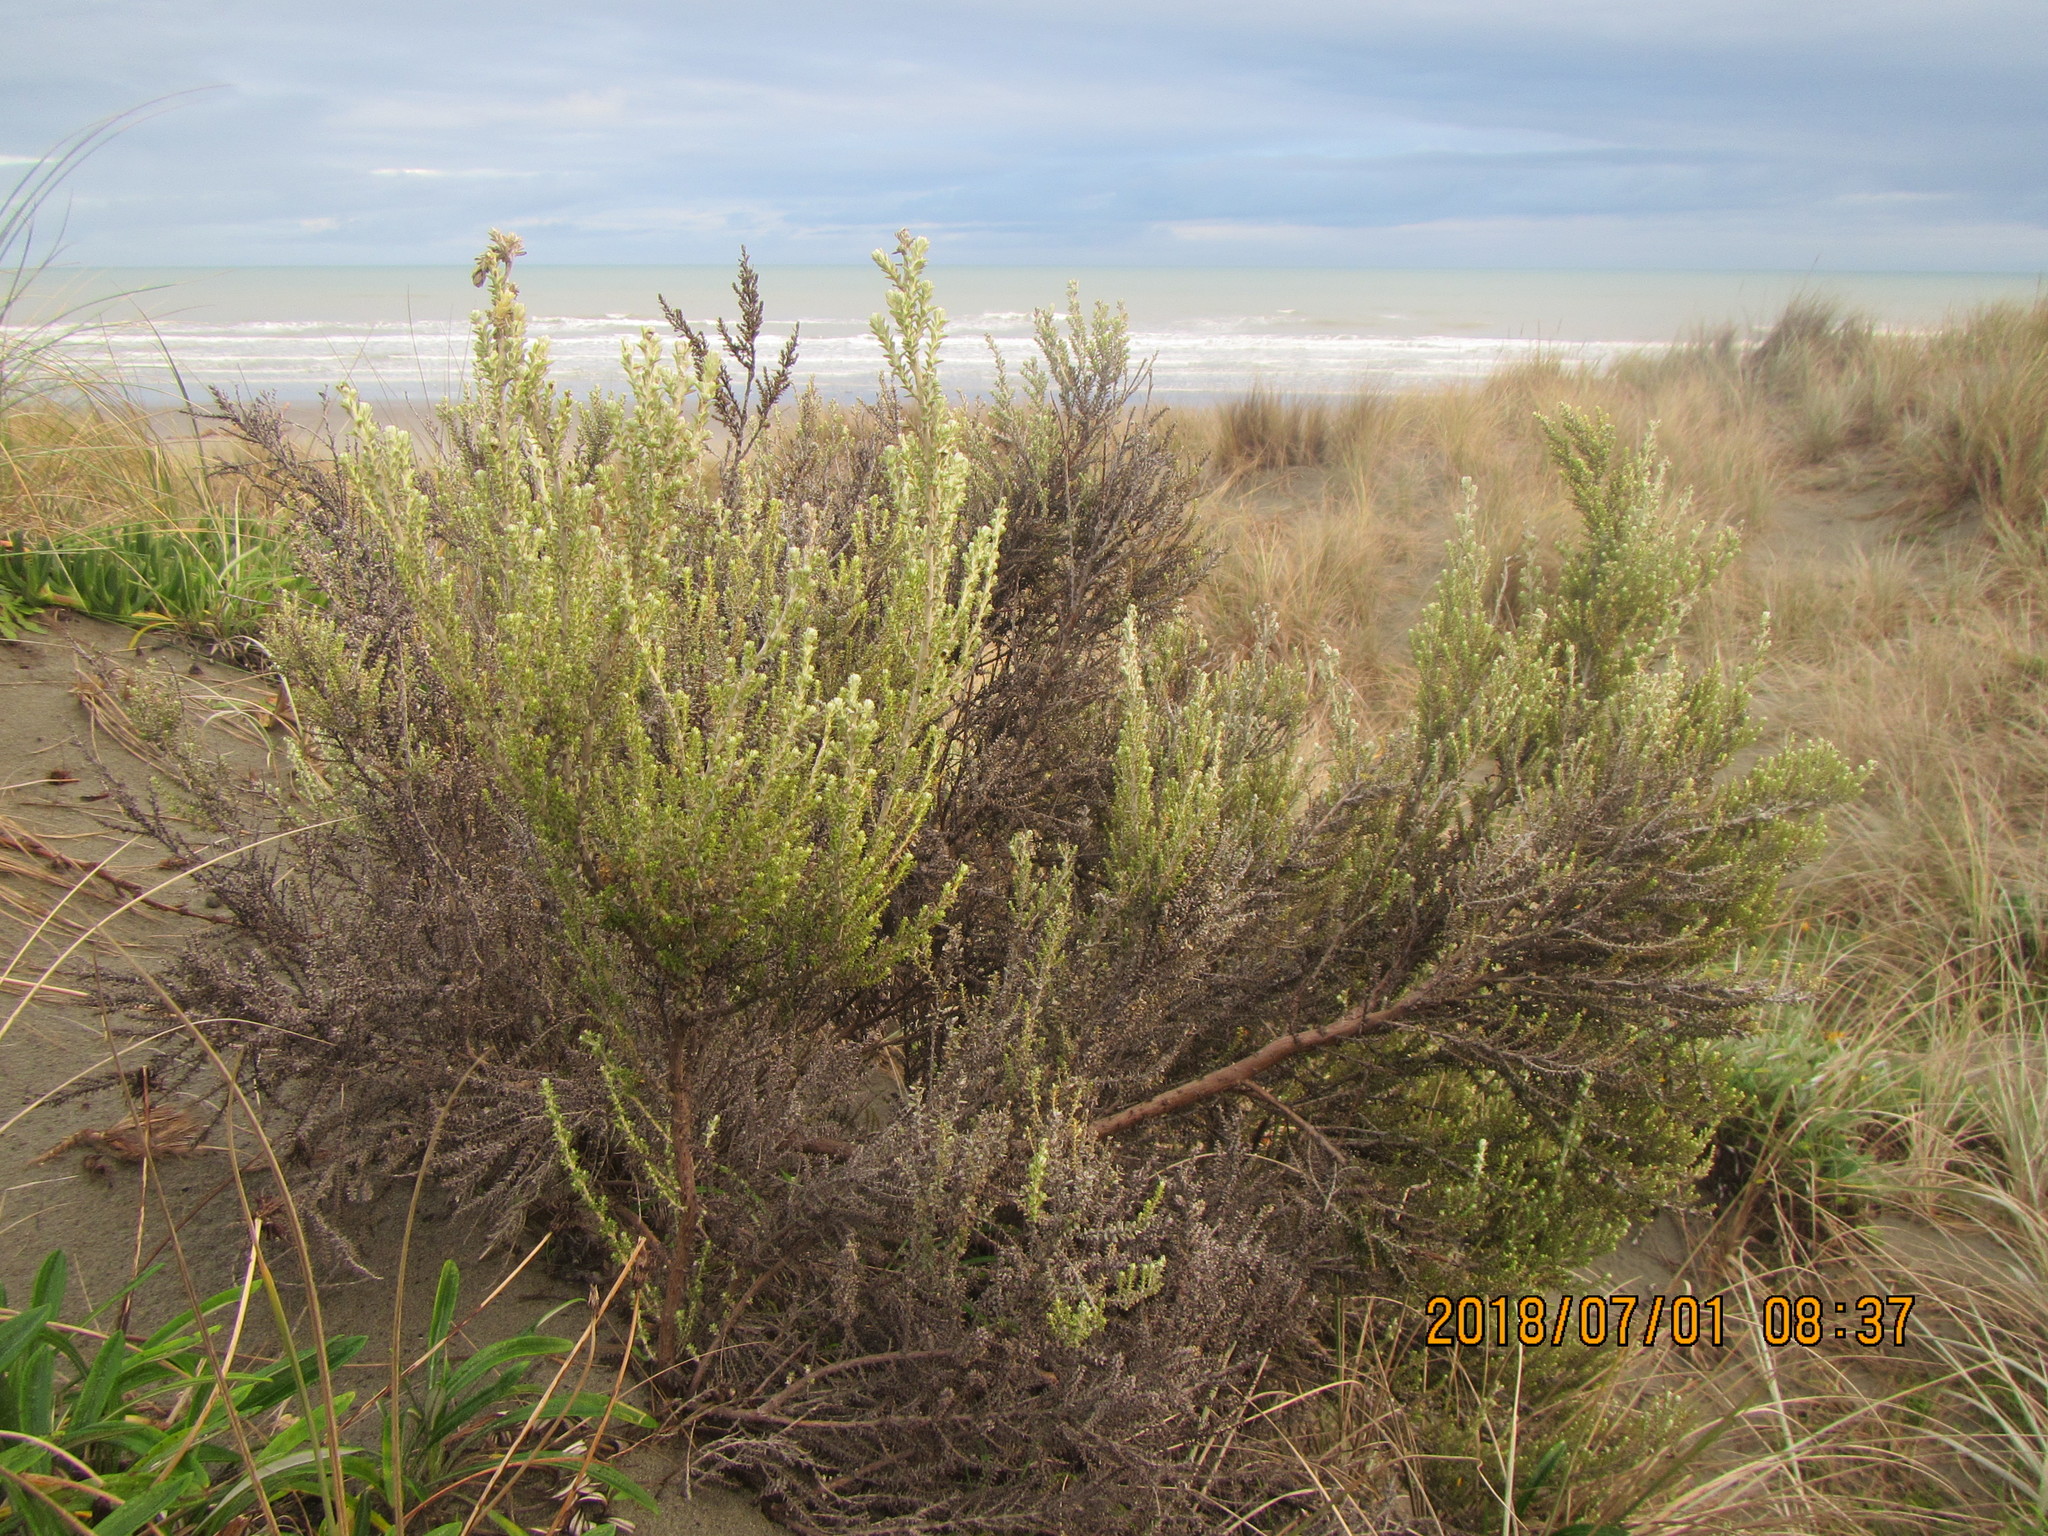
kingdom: Plantae
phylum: Tracheophyta
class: Magnoliopsida
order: Asterales
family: Asteraceae
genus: Ozothamnus
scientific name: Ozothamnus leptophyllus
